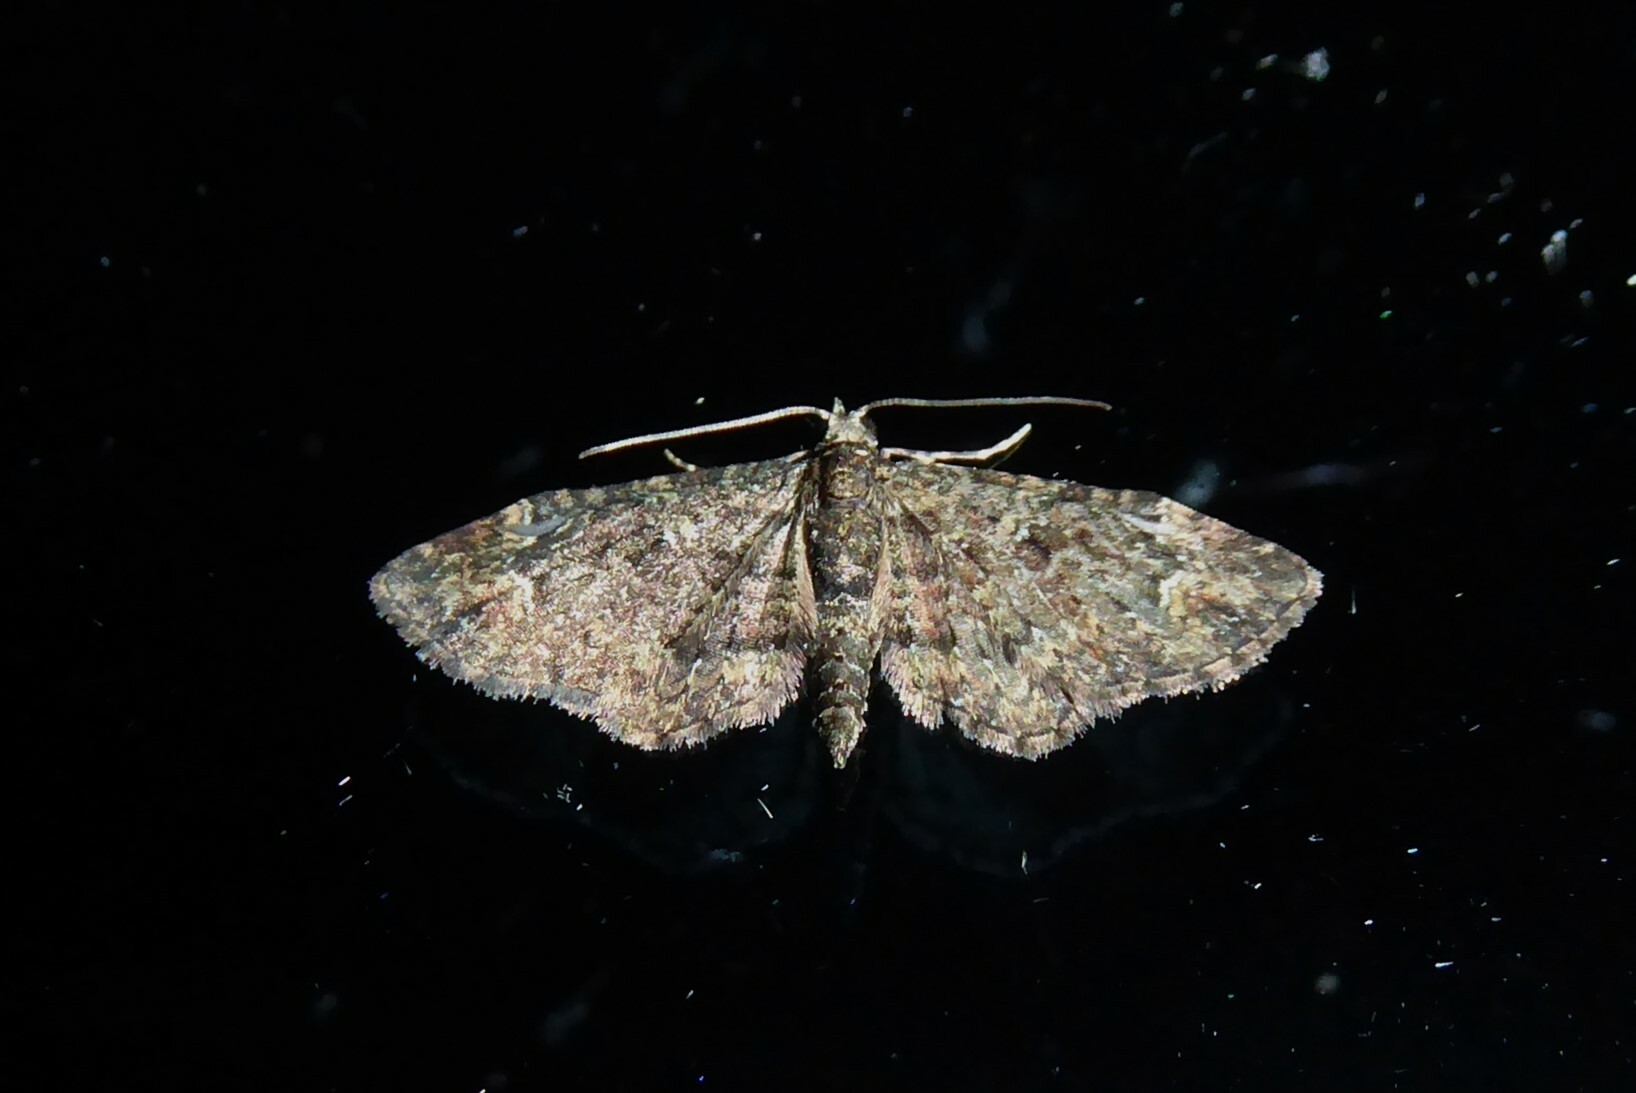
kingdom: Animalia
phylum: Arthropoda
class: Insecta
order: Lepidoptera
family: Geometridae
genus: Pasiphilodes
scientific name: Pasiphilodes testulata
